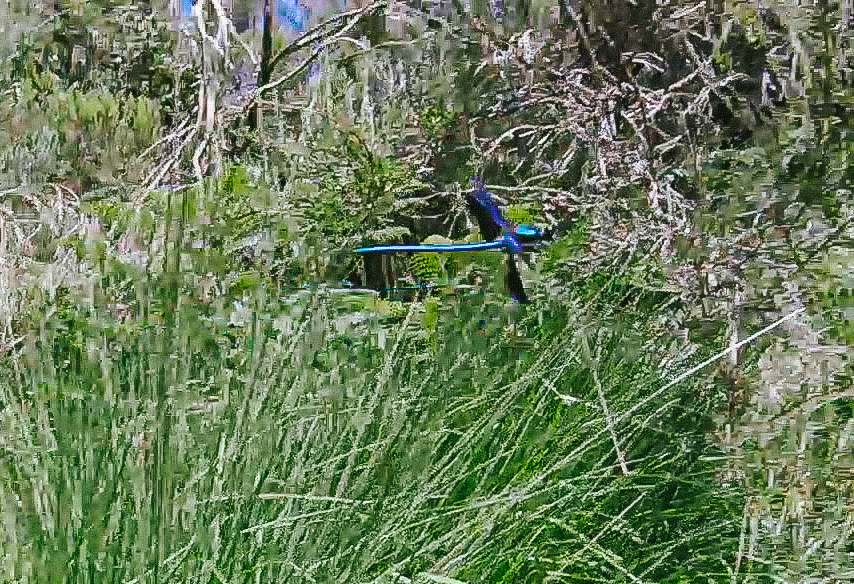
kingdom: Animalia
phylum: Arthropoda
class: Insecta
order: Odonata
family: Calopterygidae
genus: Calopteryx
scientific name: Calopteryx virgo
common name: Beautiful demoiselle
